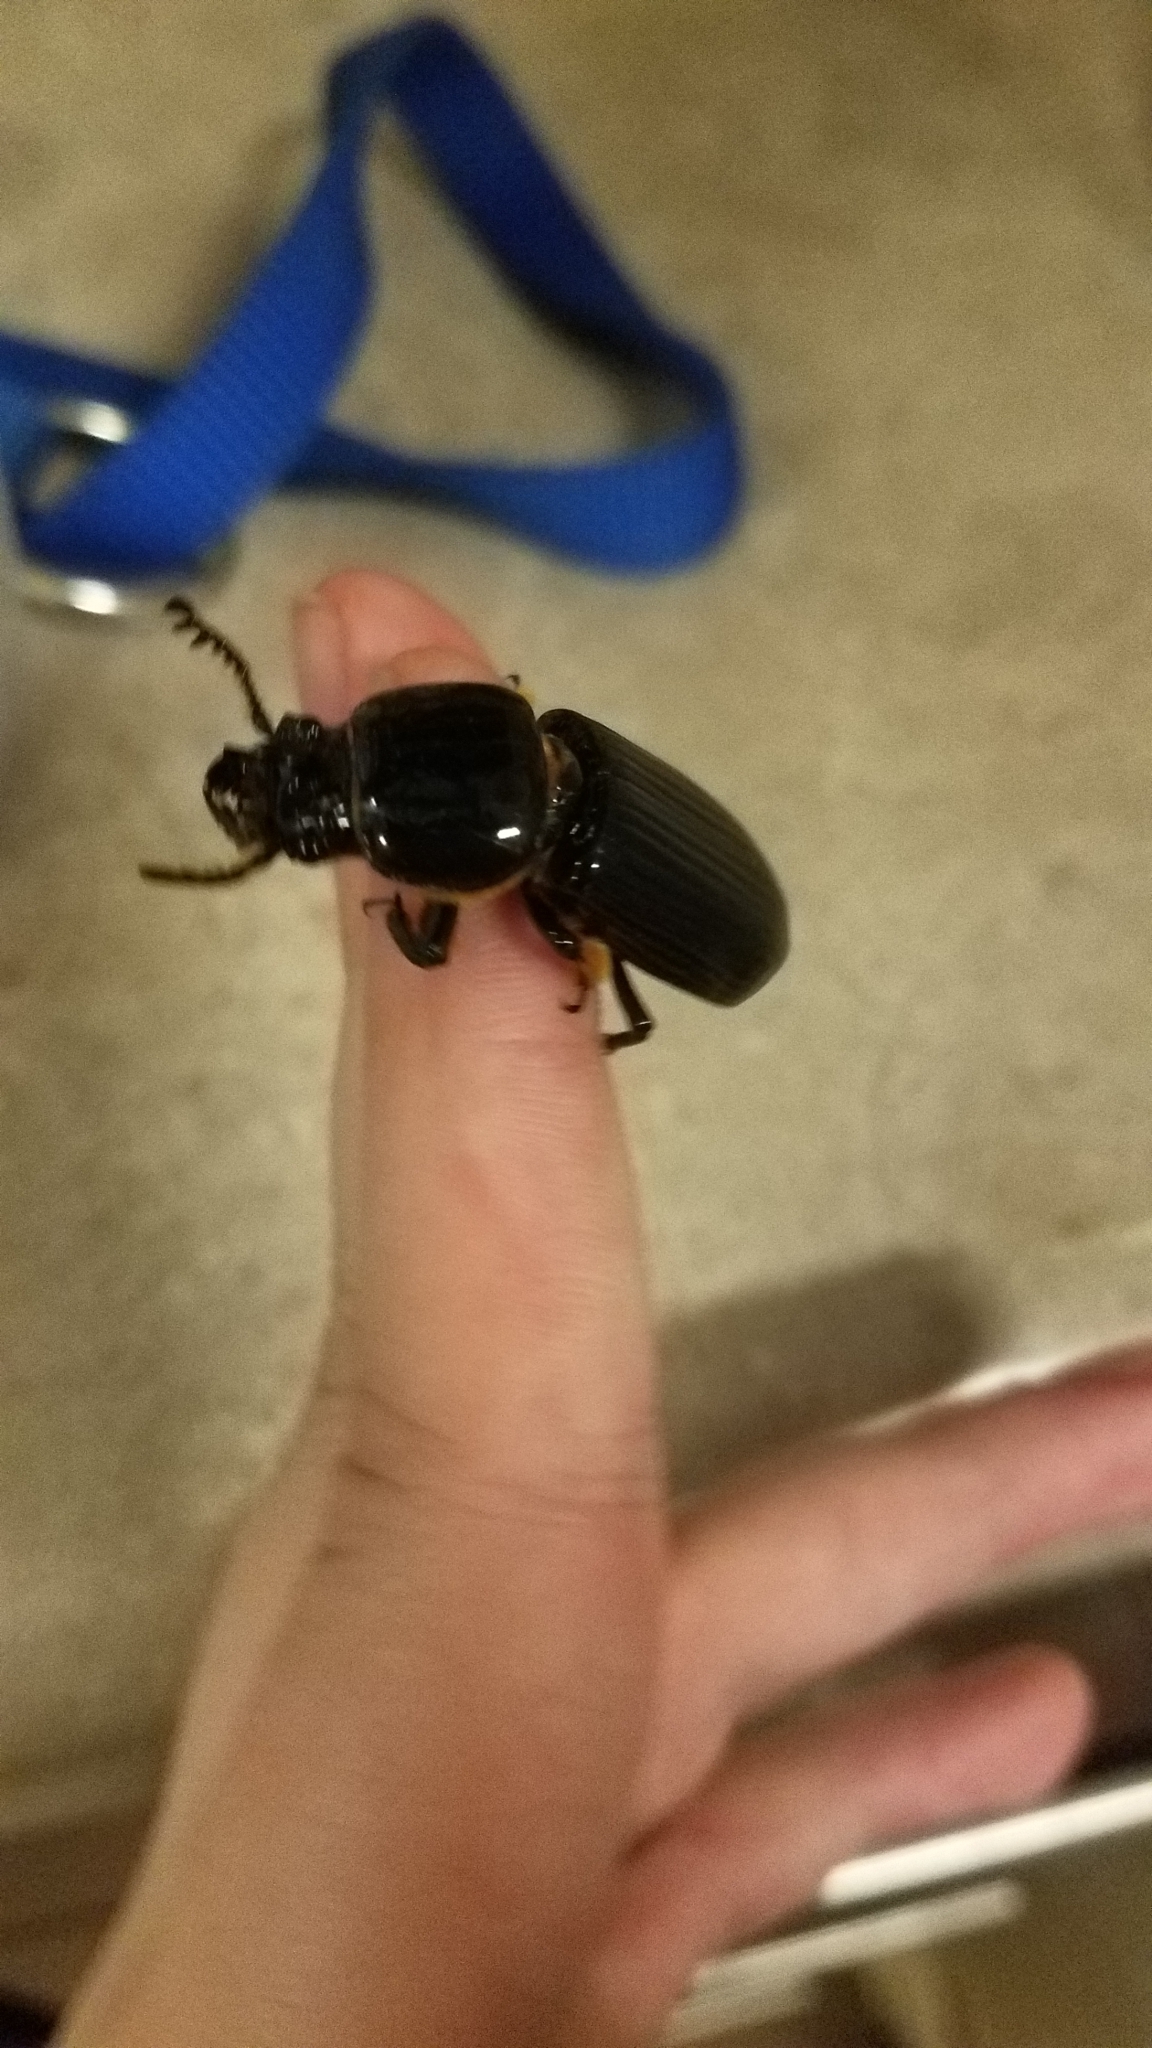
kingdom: Animalia
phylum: Arthropoda
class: Insecta
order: Coleoptera
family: Passalidae
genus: Odontotaenius
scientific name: Odontotaenius disjunctus
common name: Patent leather beetle
